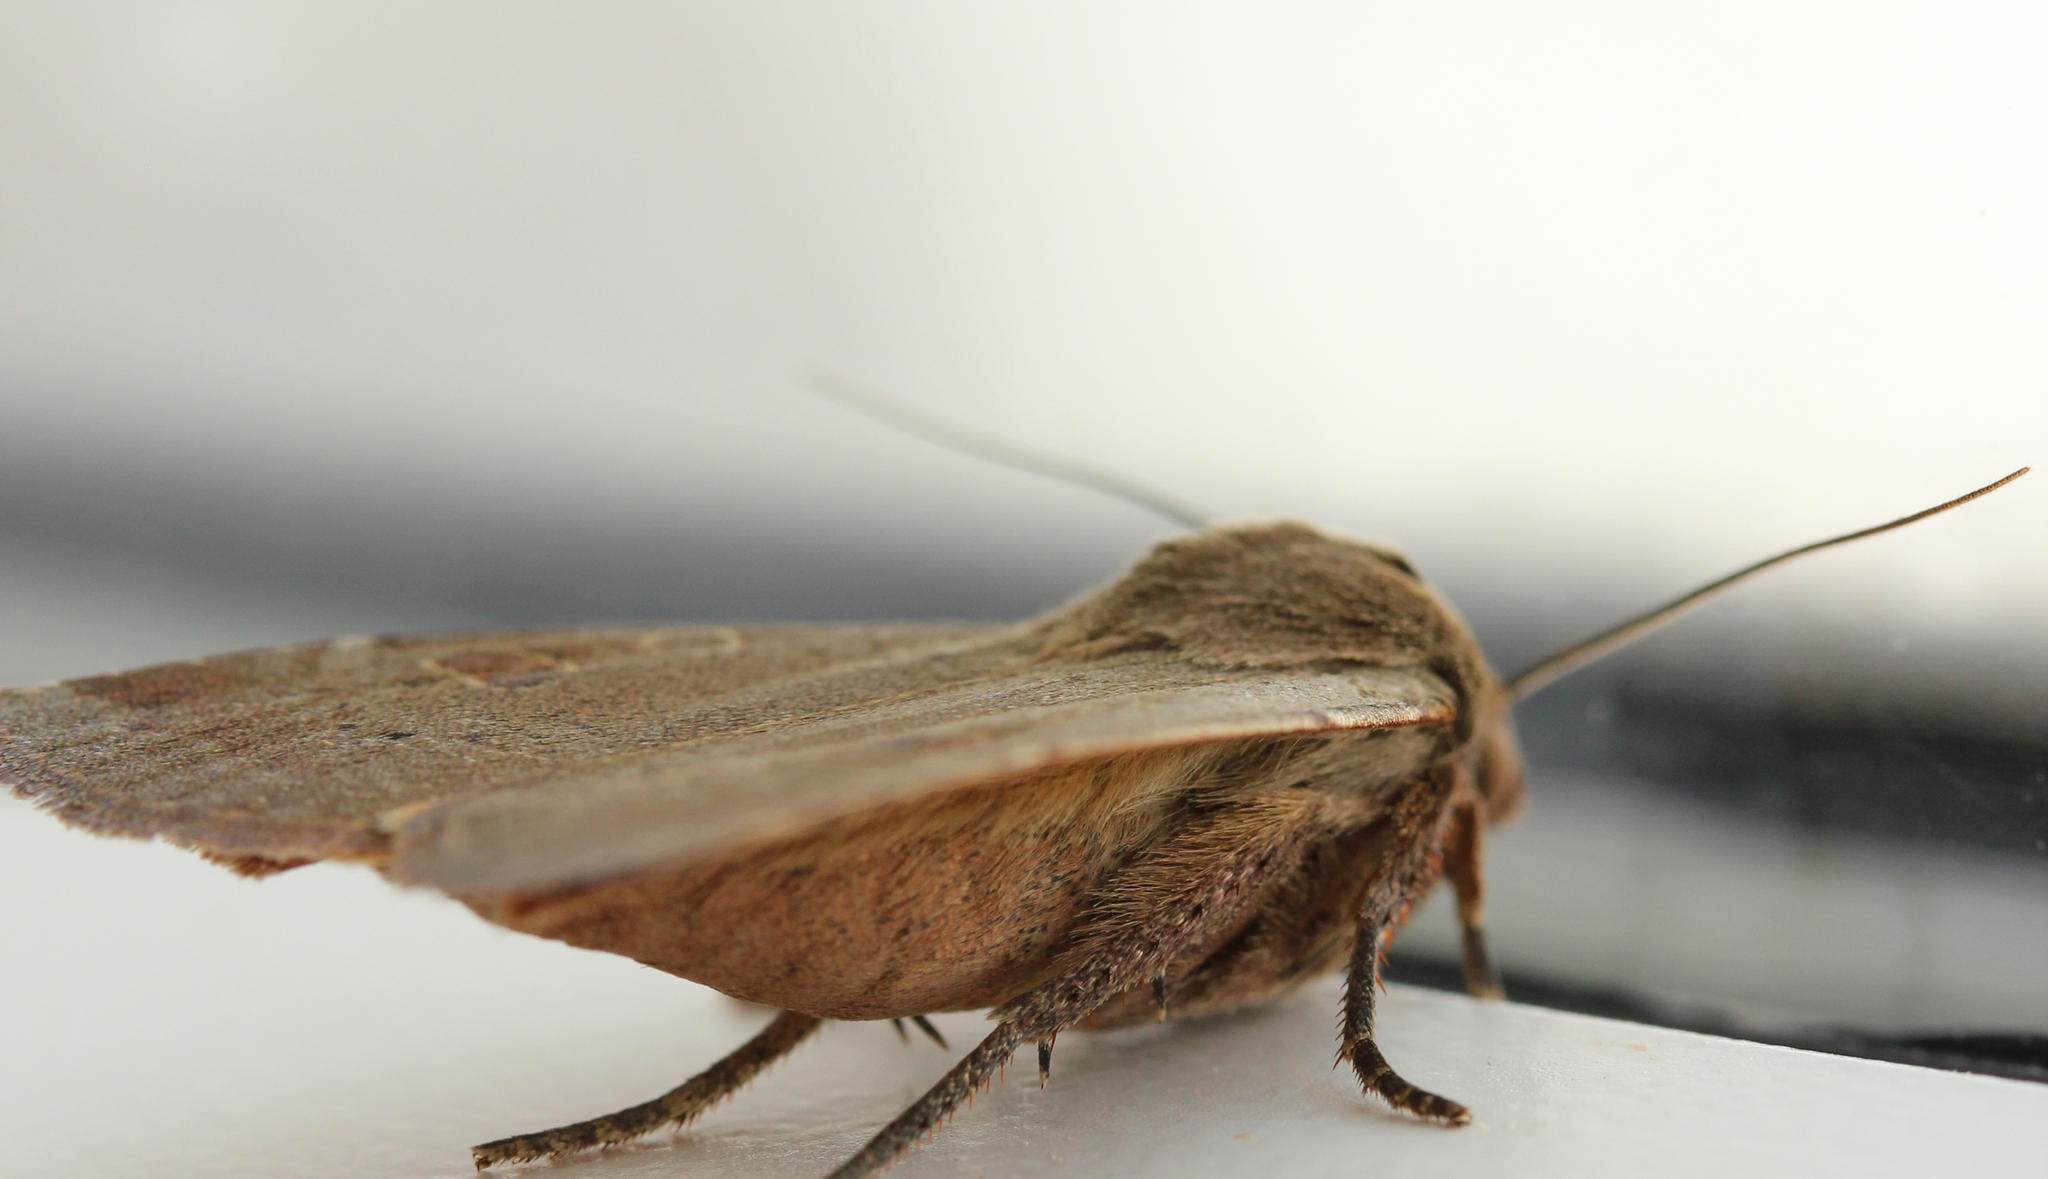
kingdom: Animalia
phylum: Arthropoda
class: Insecta
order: Lepidoptera
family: Noctuidae
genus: Noctua
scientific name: Noctua comes
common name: Lesser yellow underwing
